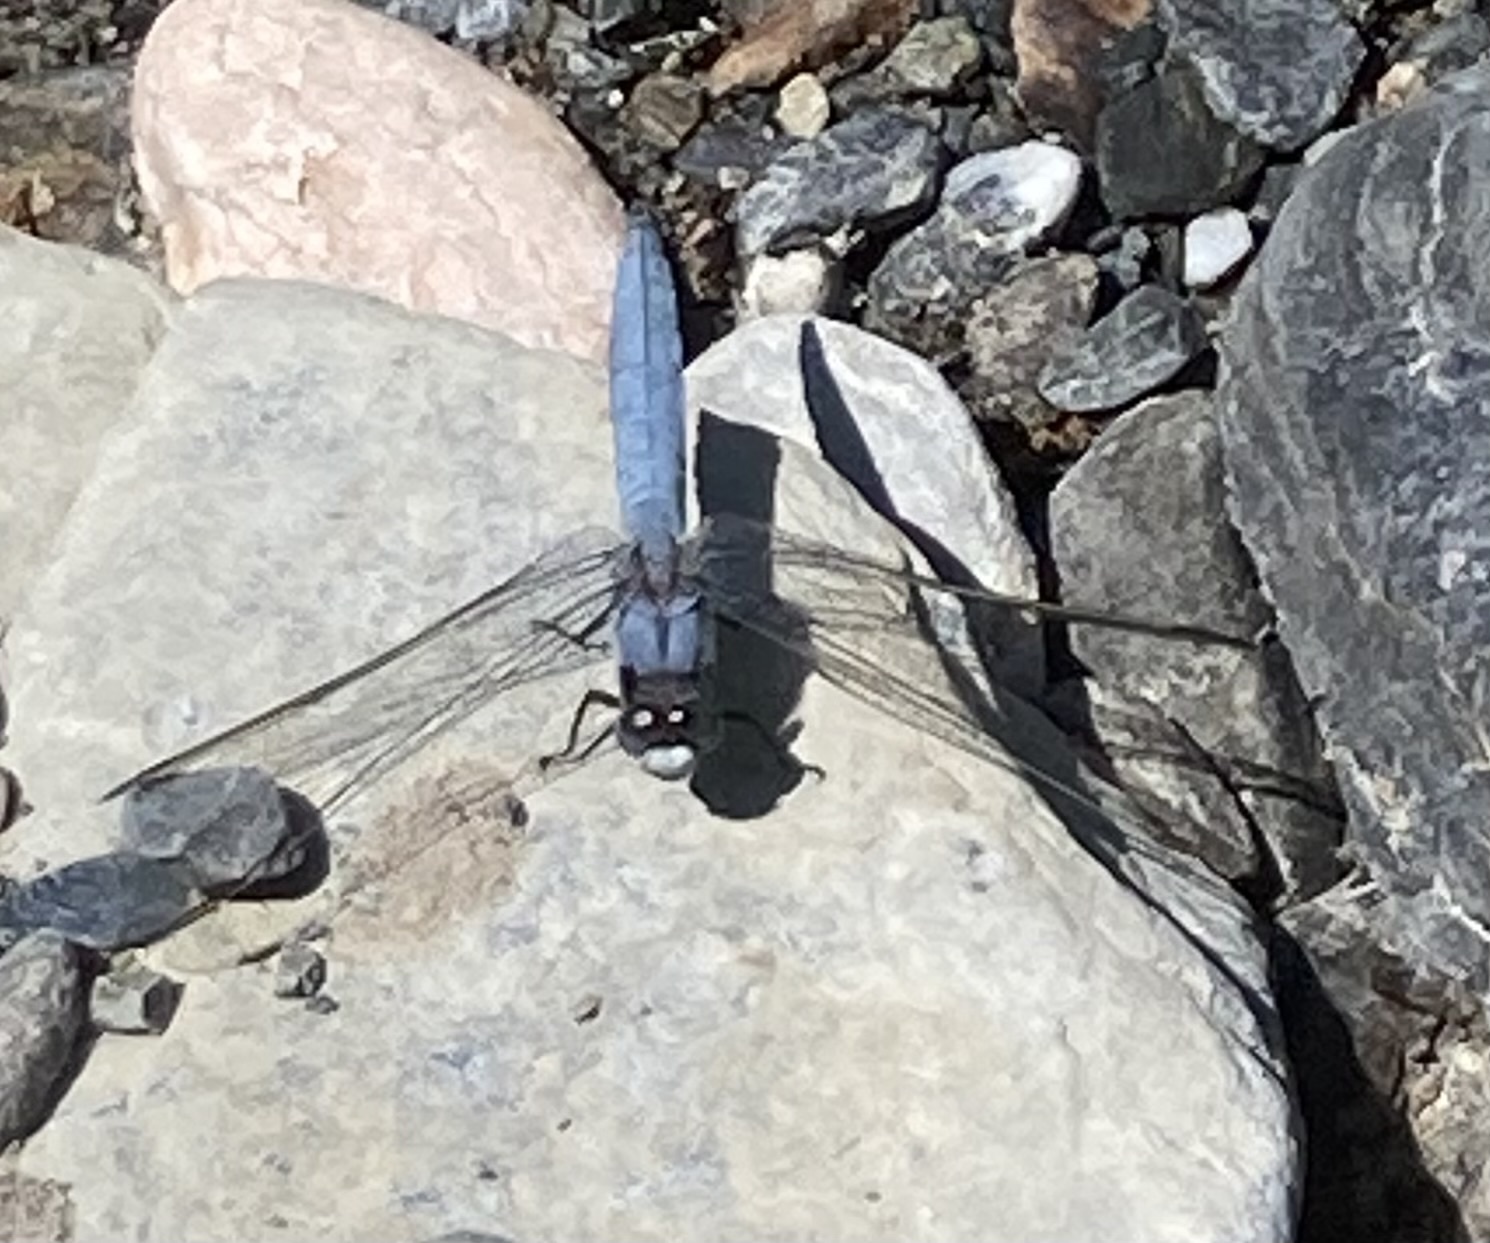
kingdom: Animalia
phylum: Arthropoda
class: Insecta
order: Odonata
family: Libellulidae
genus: Orthetrum
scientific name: Orthetrum brunneum
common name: Southern skimmer
